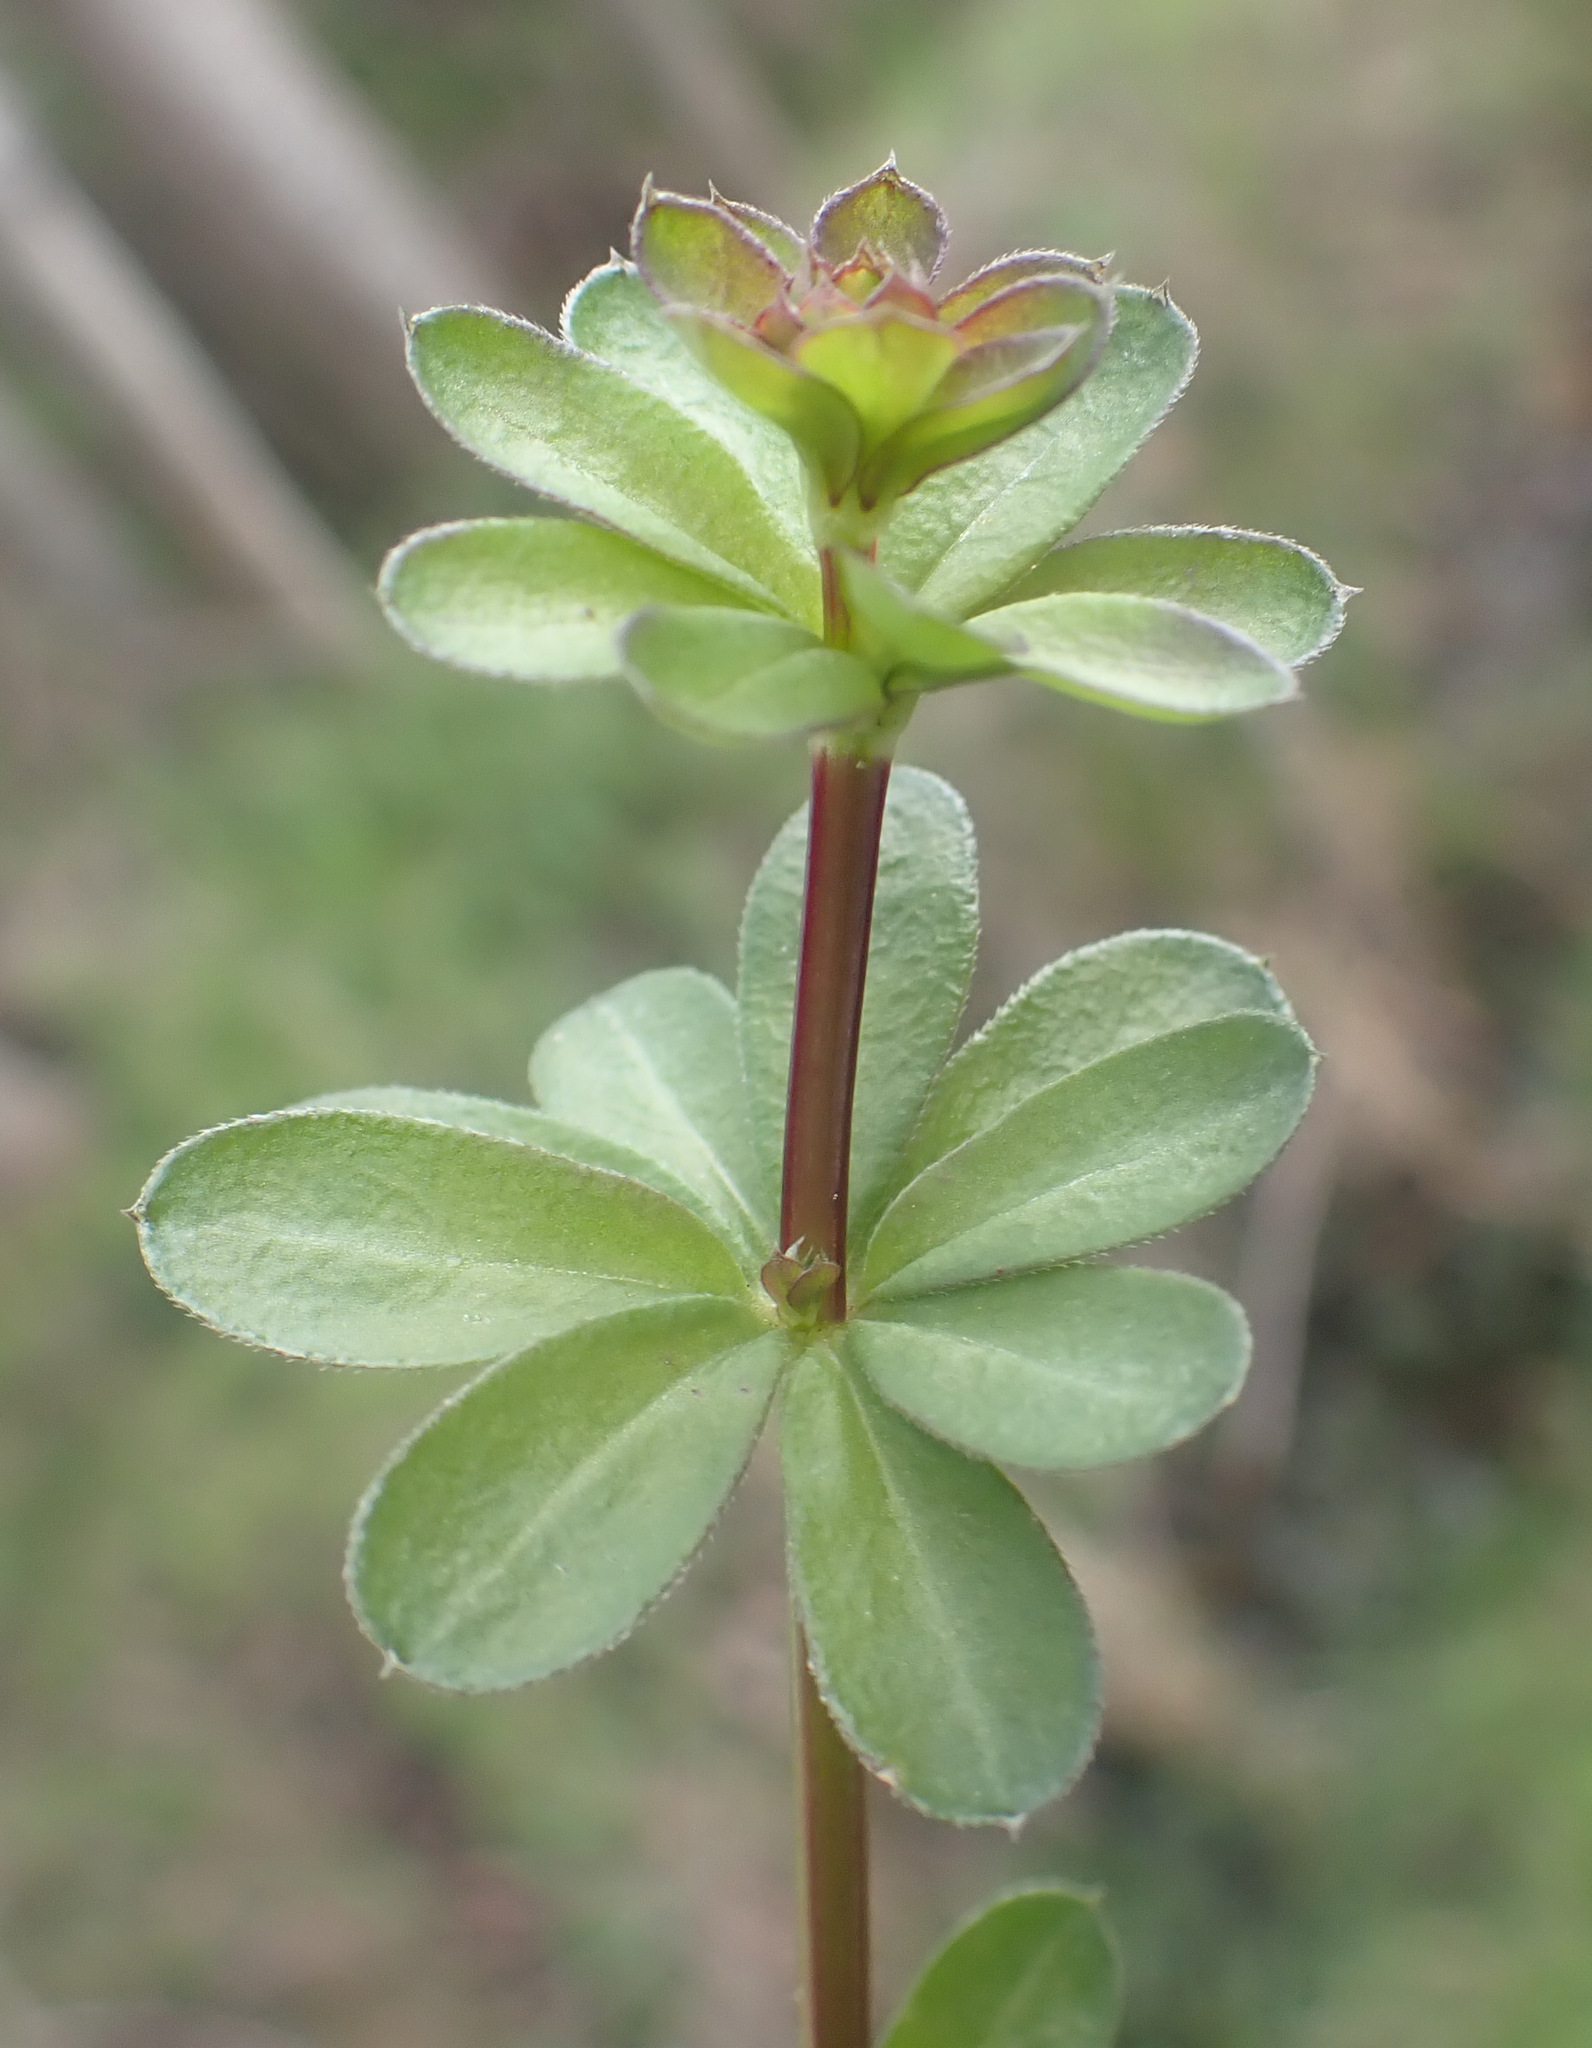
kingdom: Plantae
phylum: Tracheophyta
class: Magnoliopsida
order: Gentianales
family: Rubiaceae
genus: Galium
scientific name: Galium mollugo
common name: Hedge bedstraw
